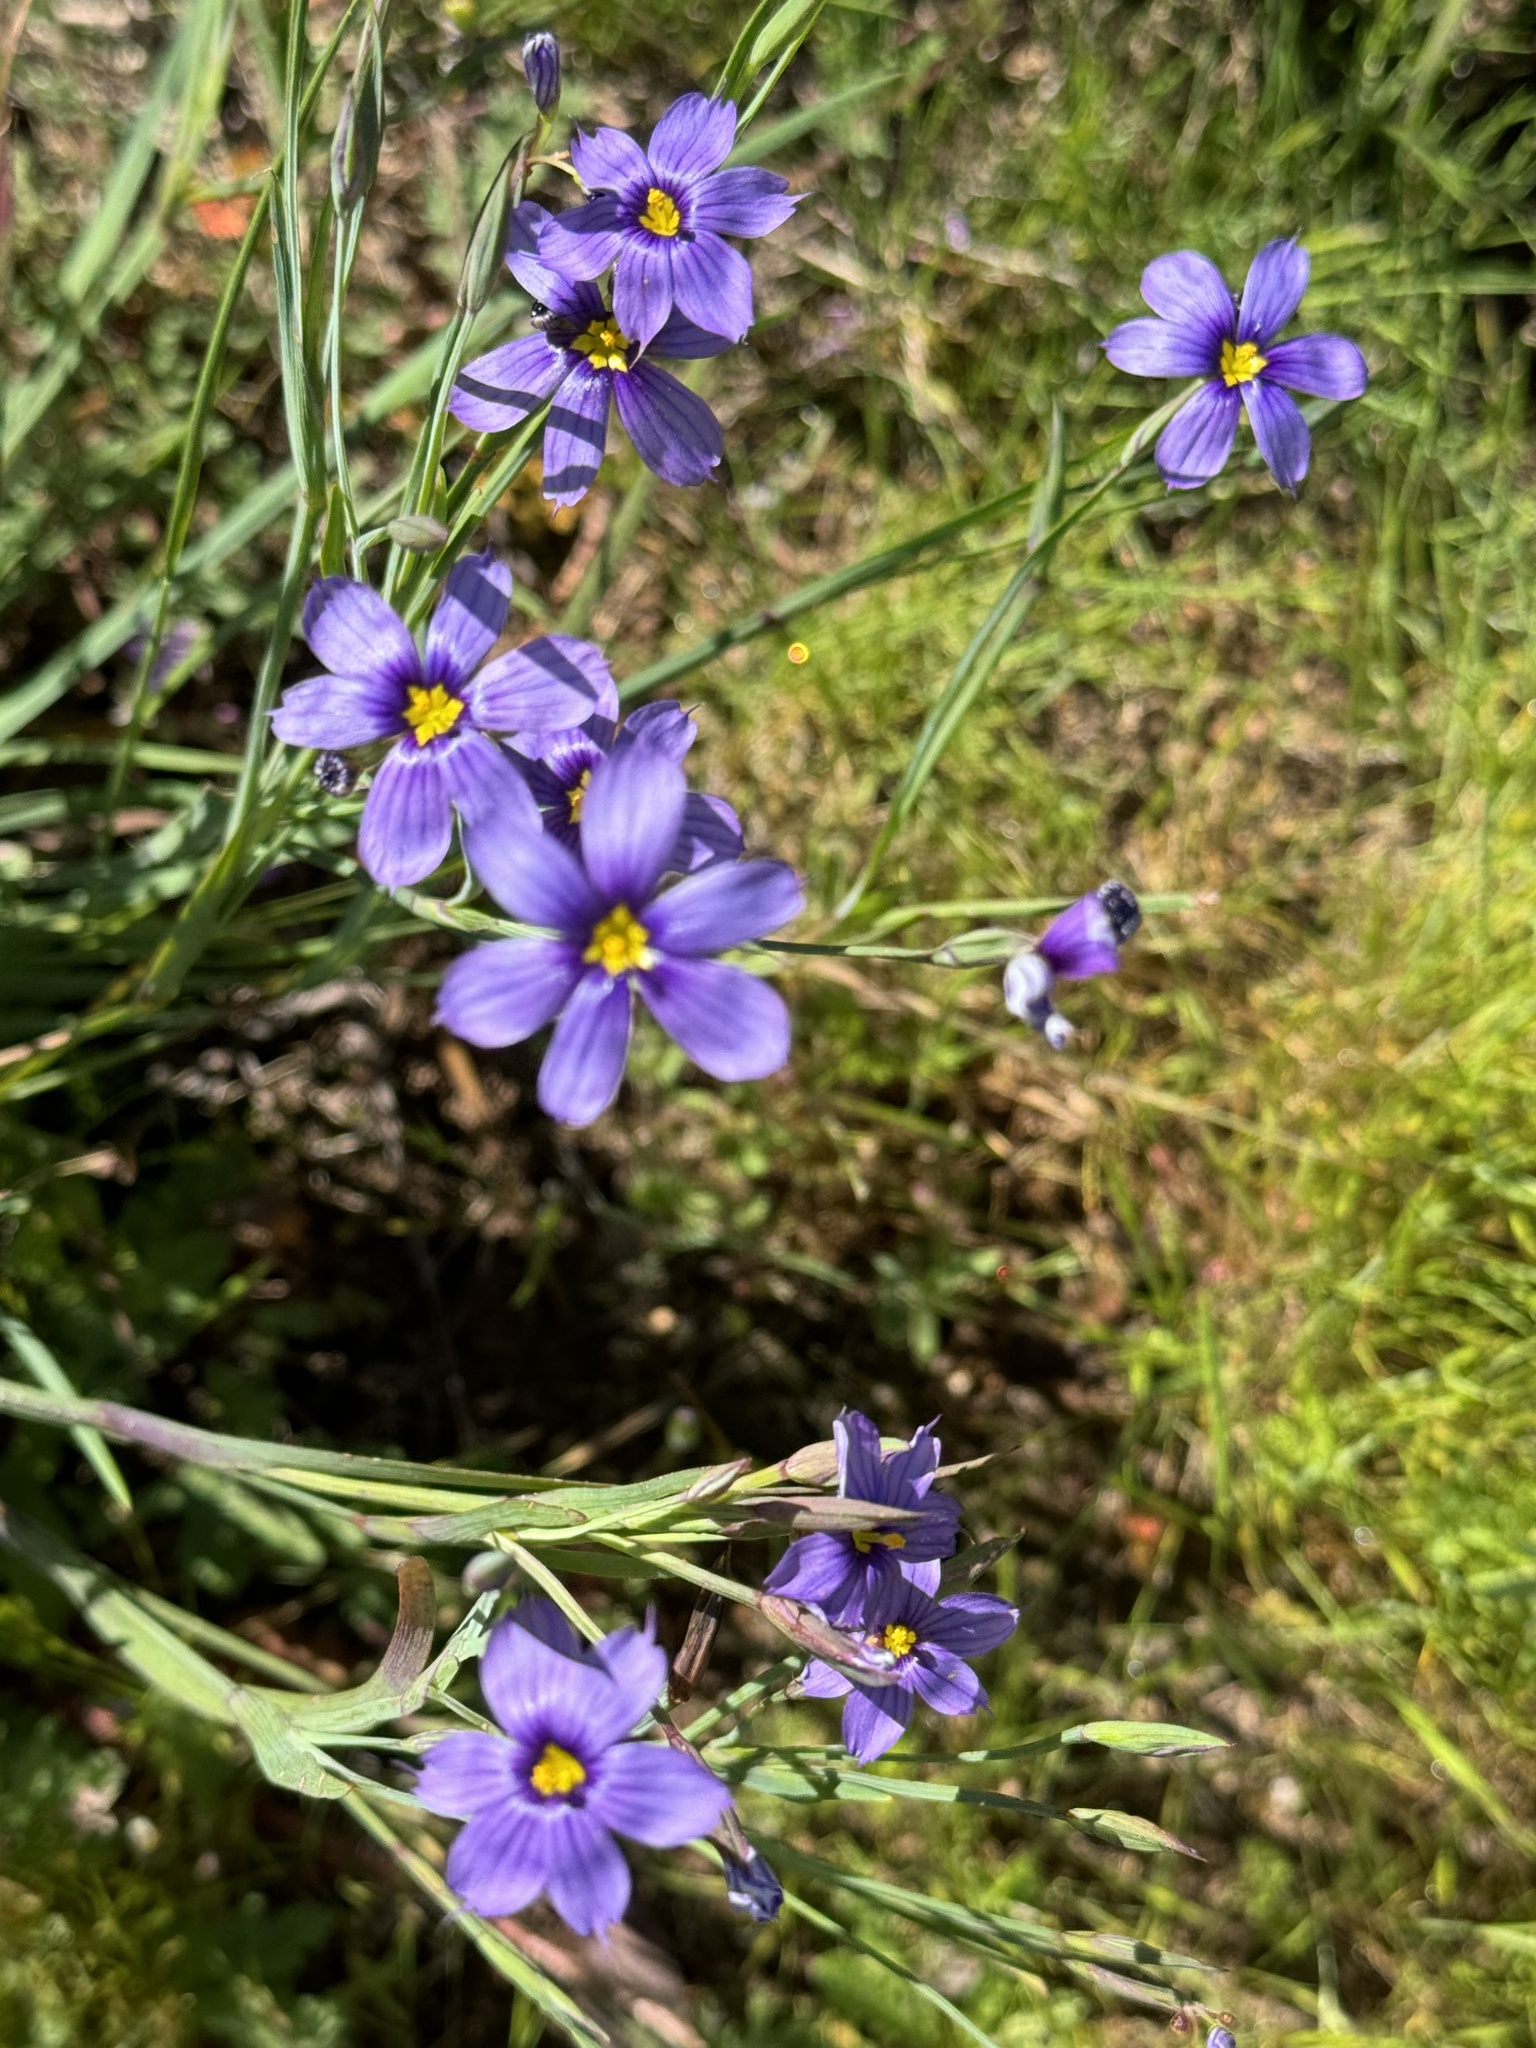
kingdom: Plantae
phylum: Tracheophyta
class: Liliopsida
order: Asparagales
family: Iridaceae
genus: Sisyrinchium
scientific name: Sisyrinchium bellum
